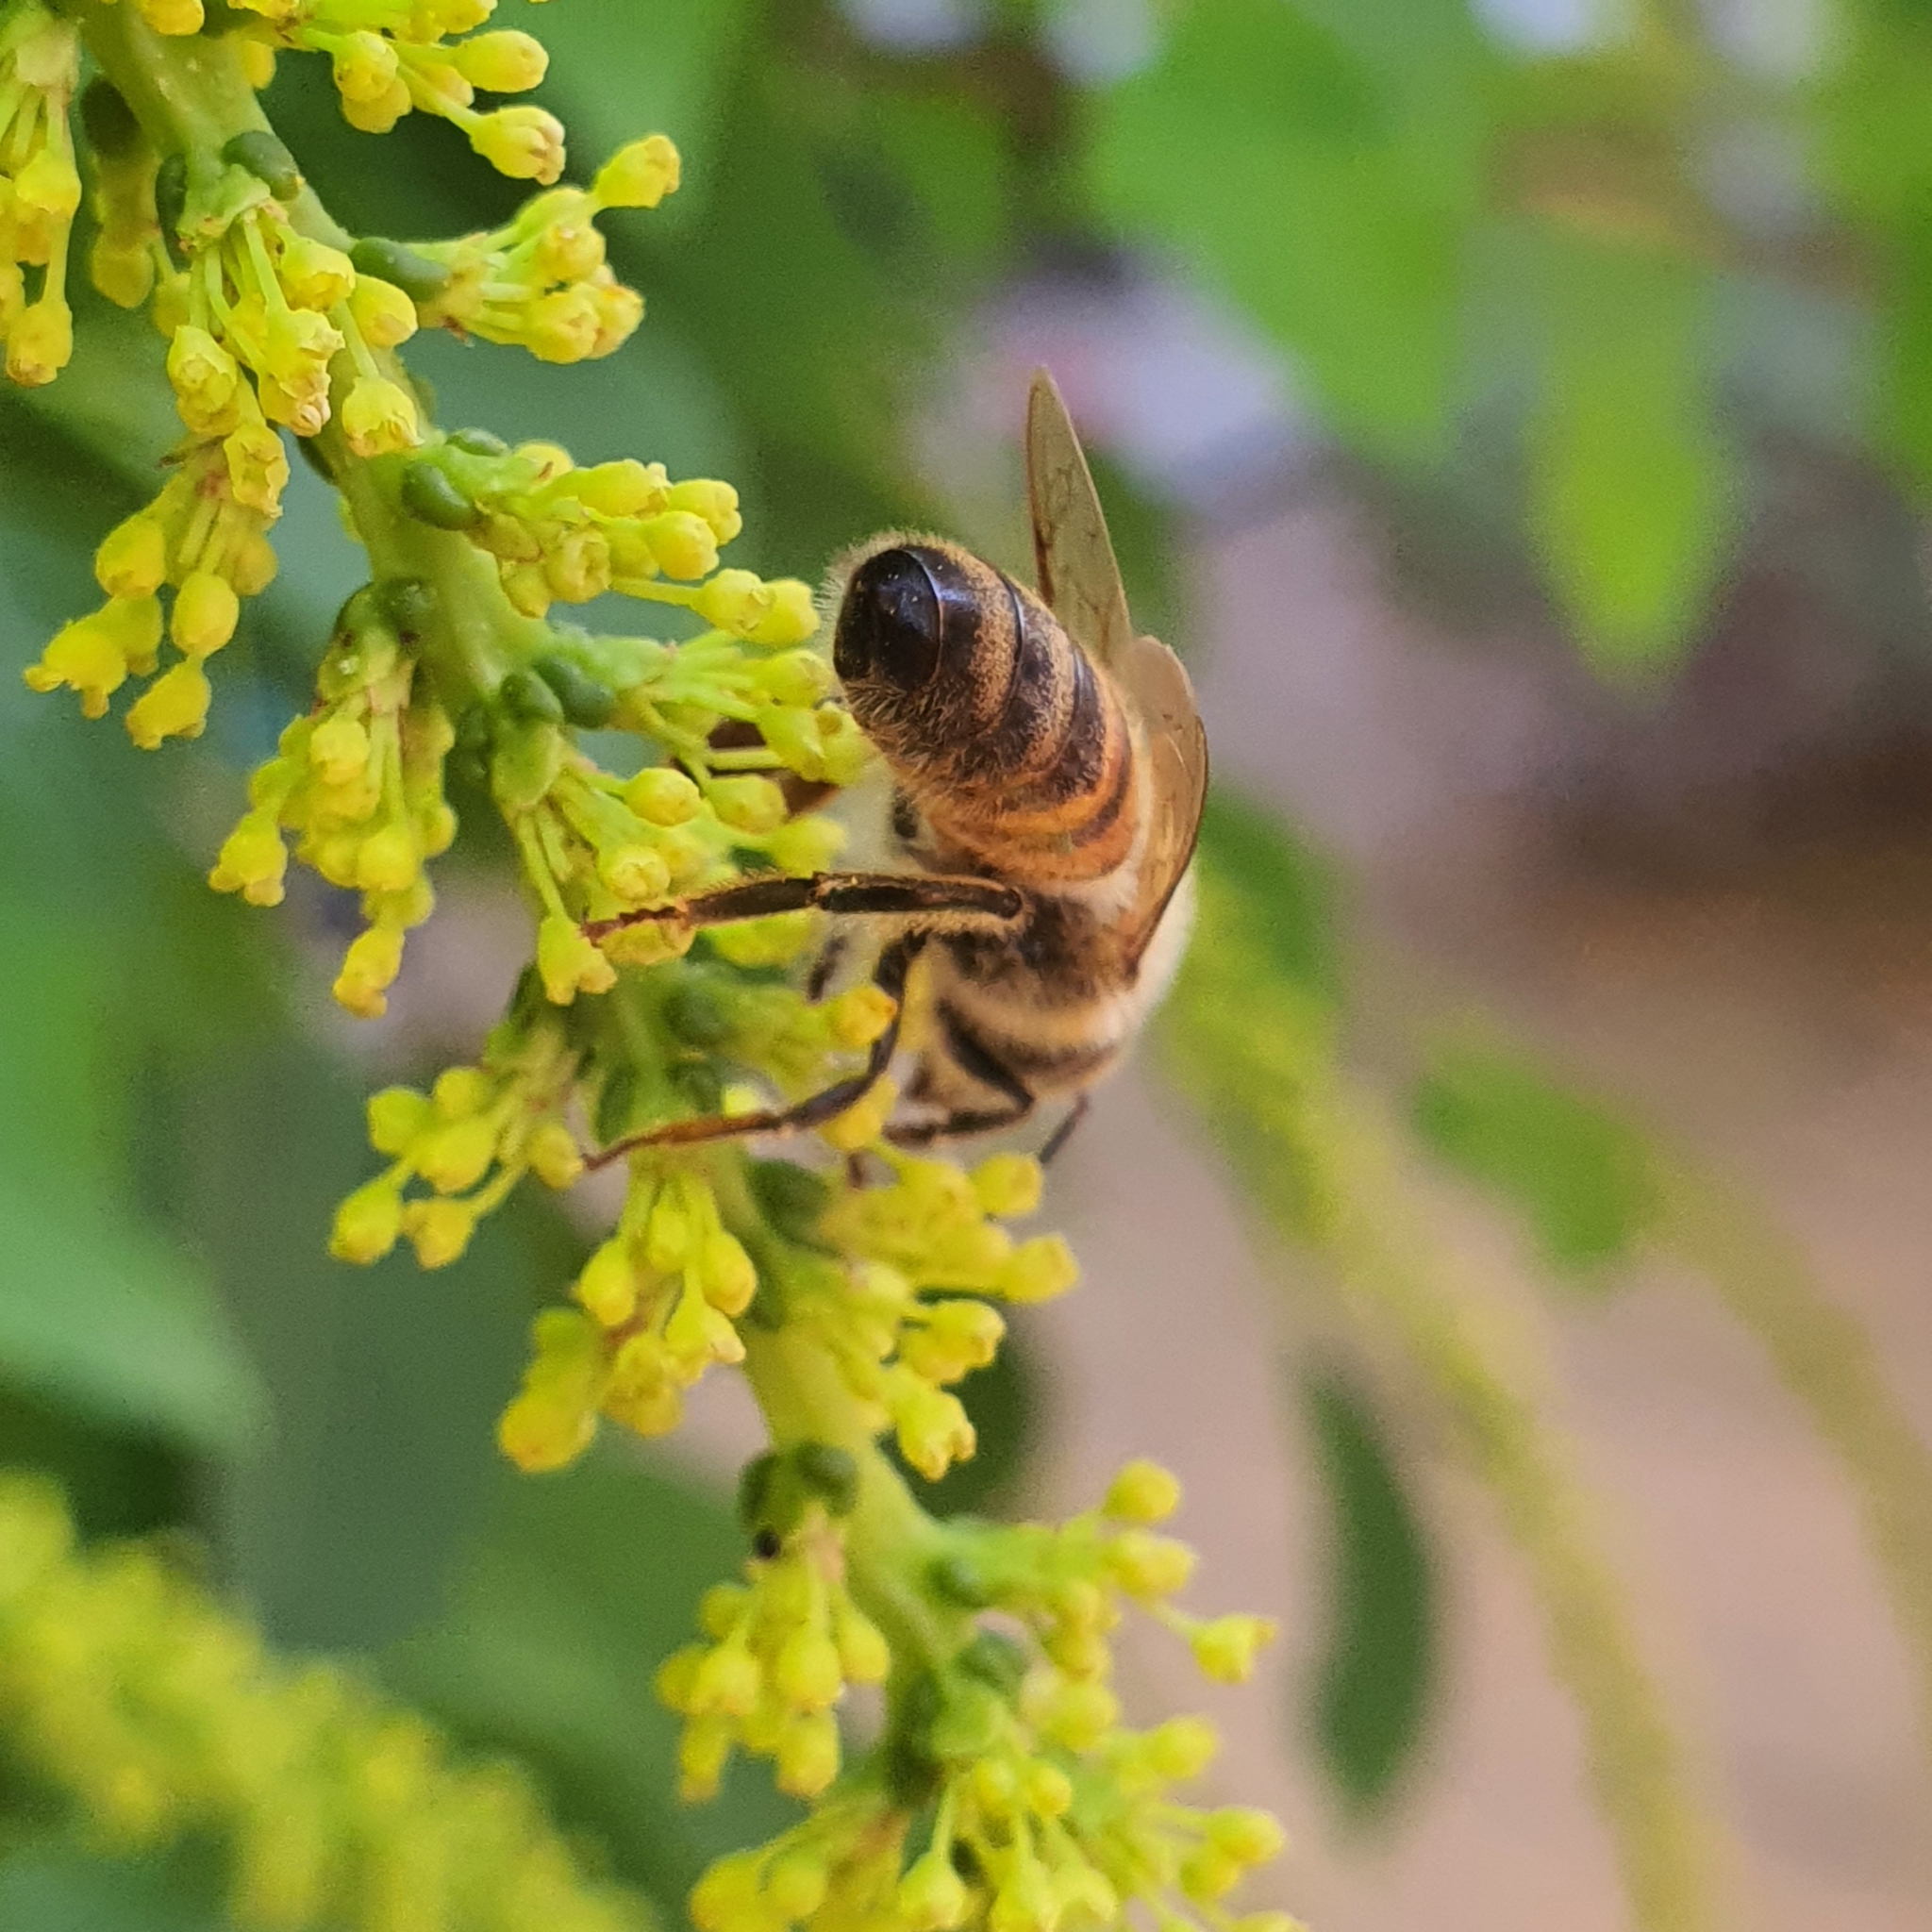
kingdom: Animalia
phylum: Arthropoda
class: Insecta
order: Hymenoptera
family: Apidae
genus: Apis
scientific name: Apis mellifera
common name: Honey bee
